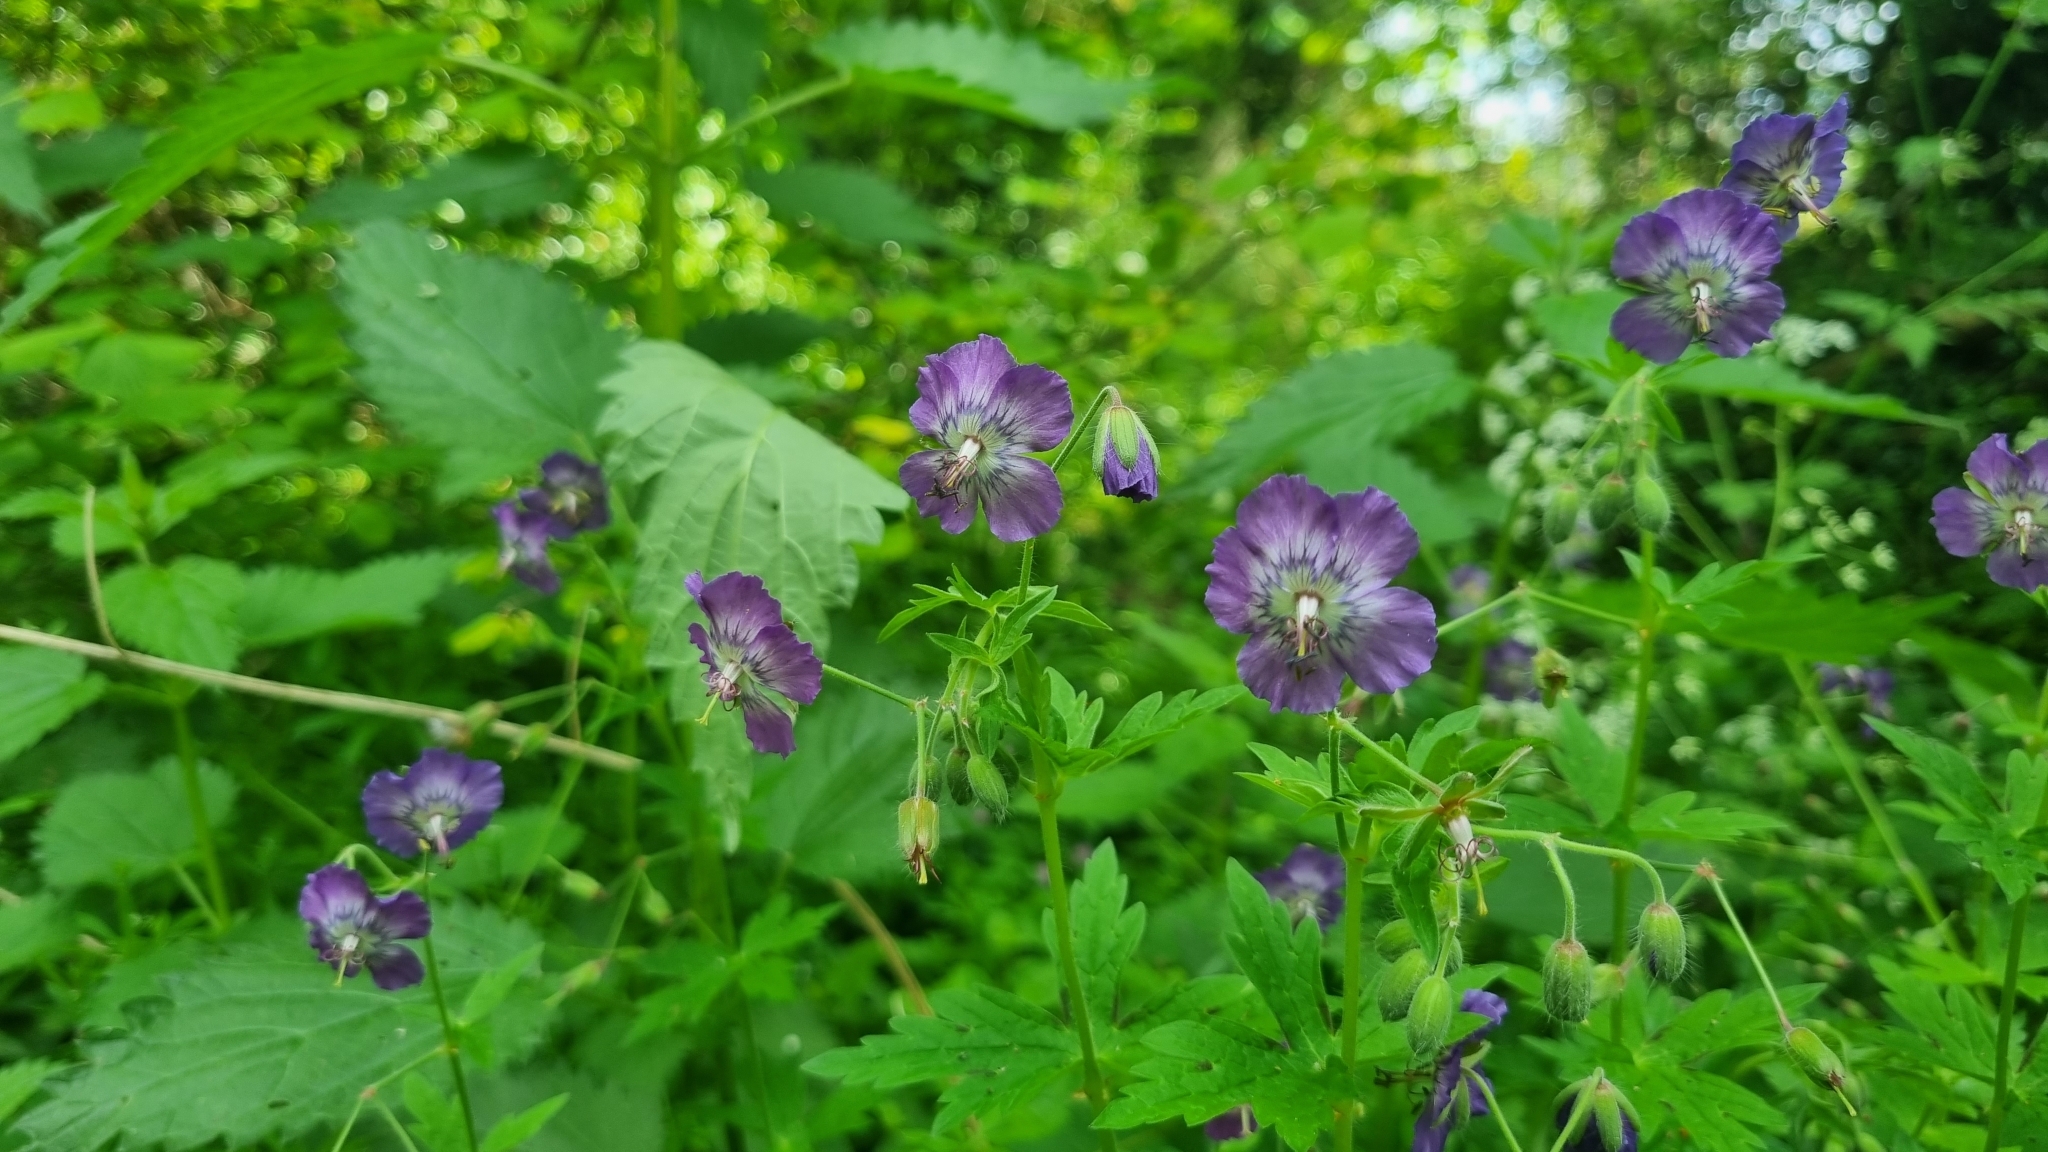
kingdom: Plantae
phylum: Tracheophyta
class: Magnoliopsida
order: Geraniales
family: Geraniaceae
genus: Geranium
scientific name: Geranium phaeum
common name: Dusky crane's-bill
